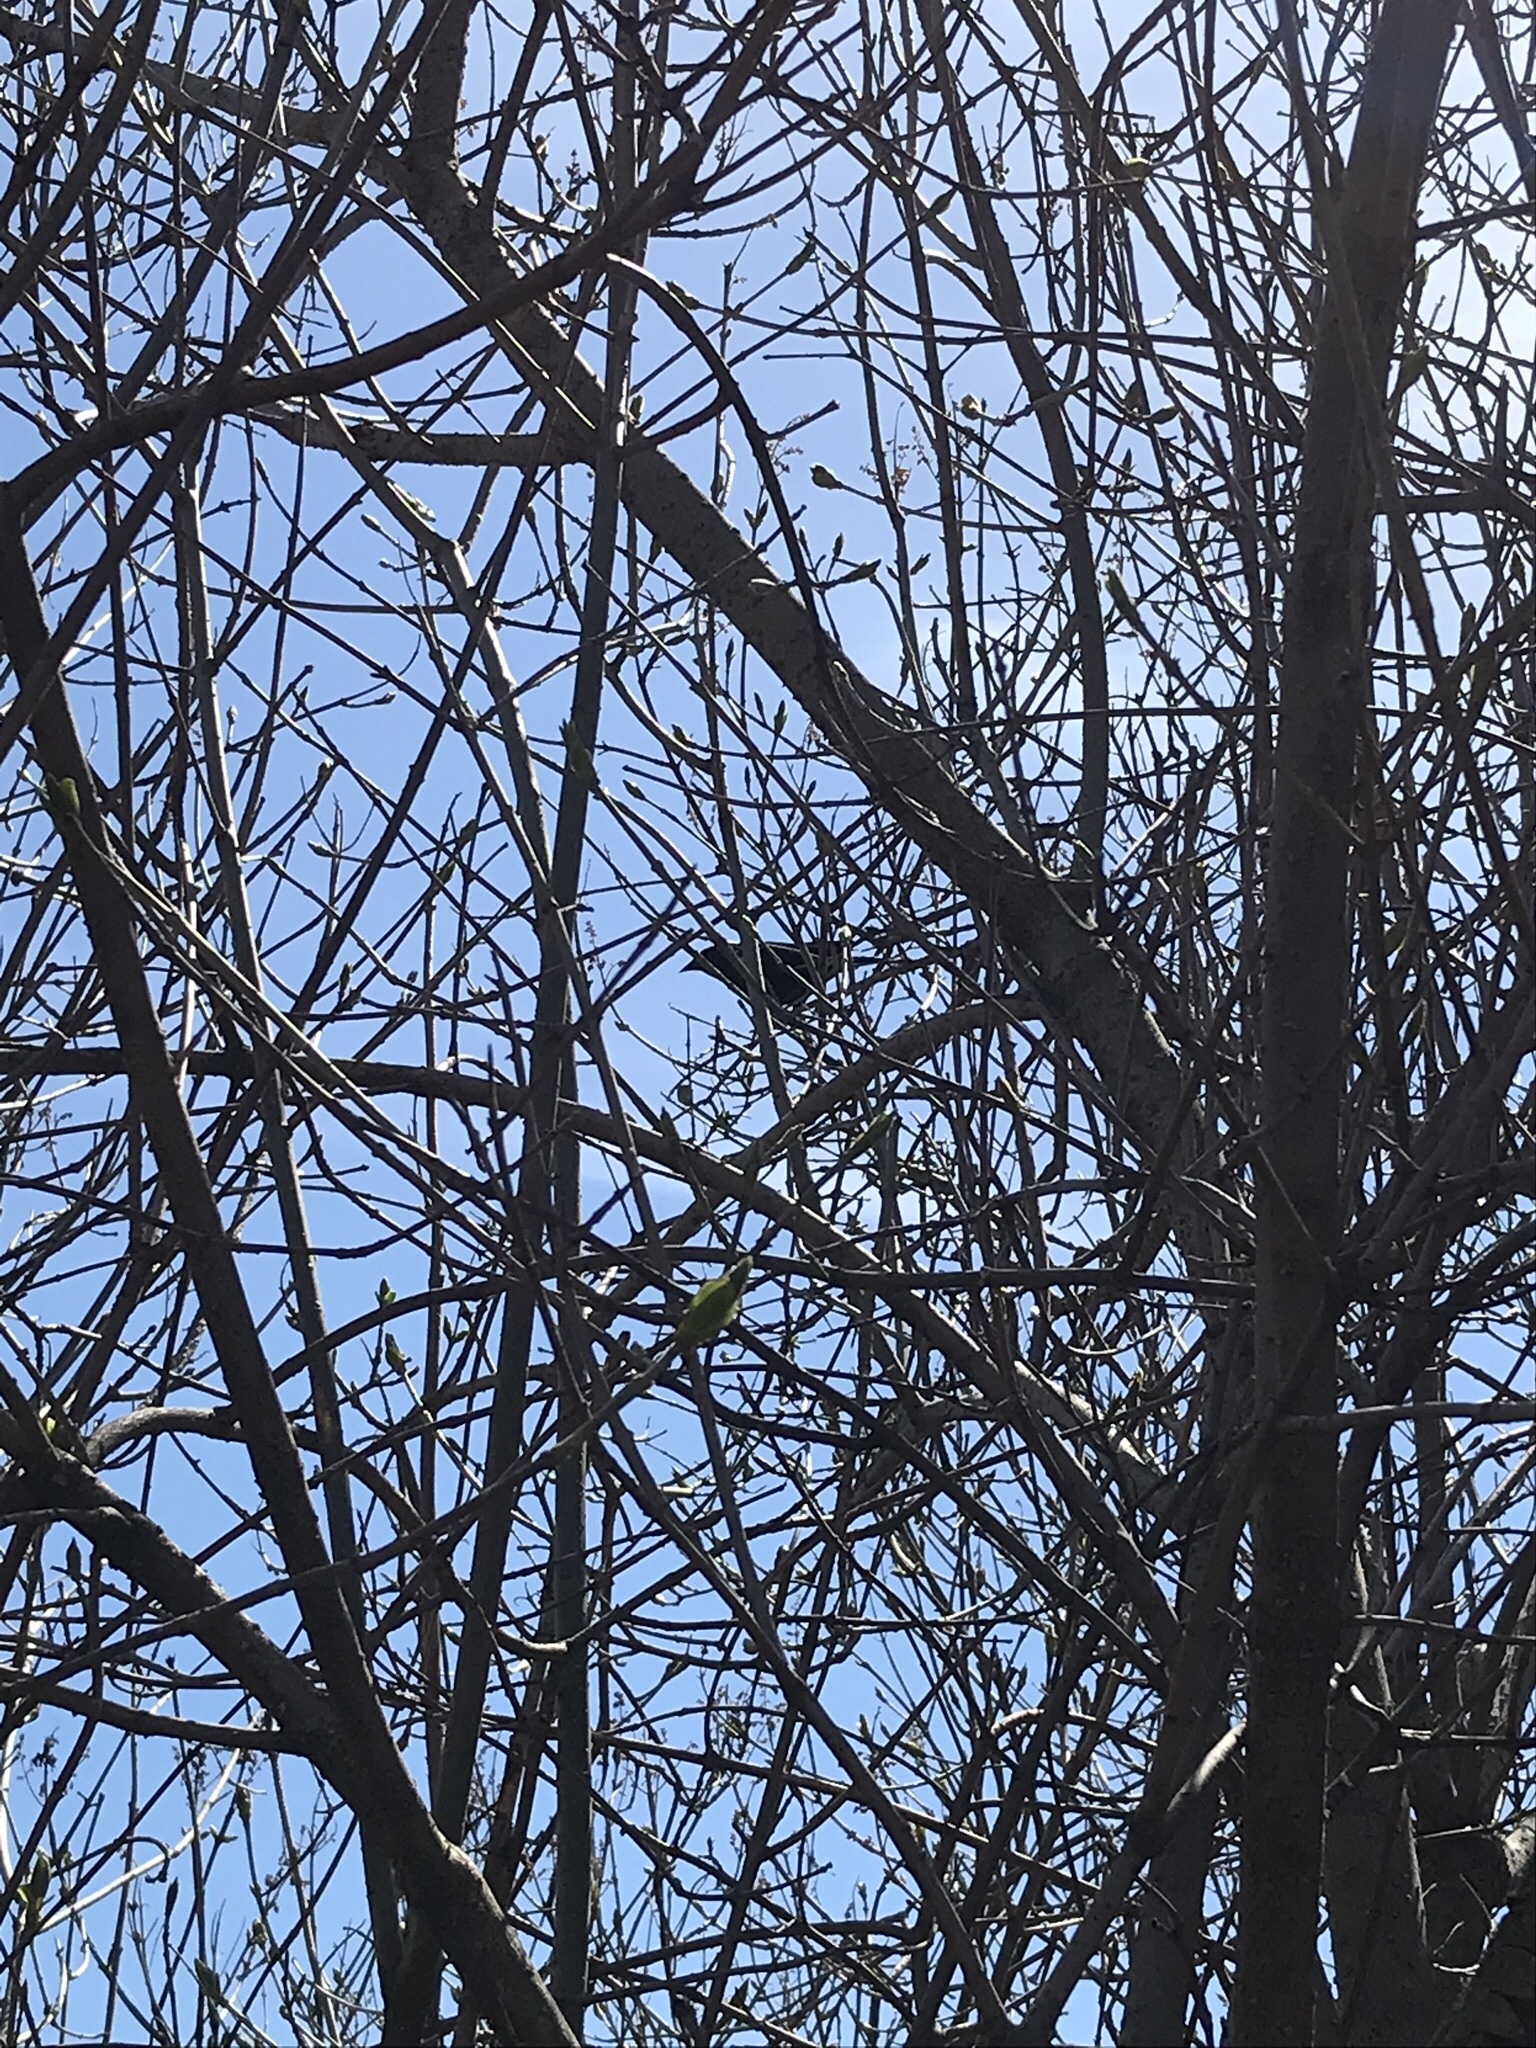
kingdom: Animalia
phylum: Chordata
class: Aves
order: Passeriformes
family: Icteridae
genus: Agelaius
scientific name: Agelaius phoeniceus
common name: Red-winged blackbird
